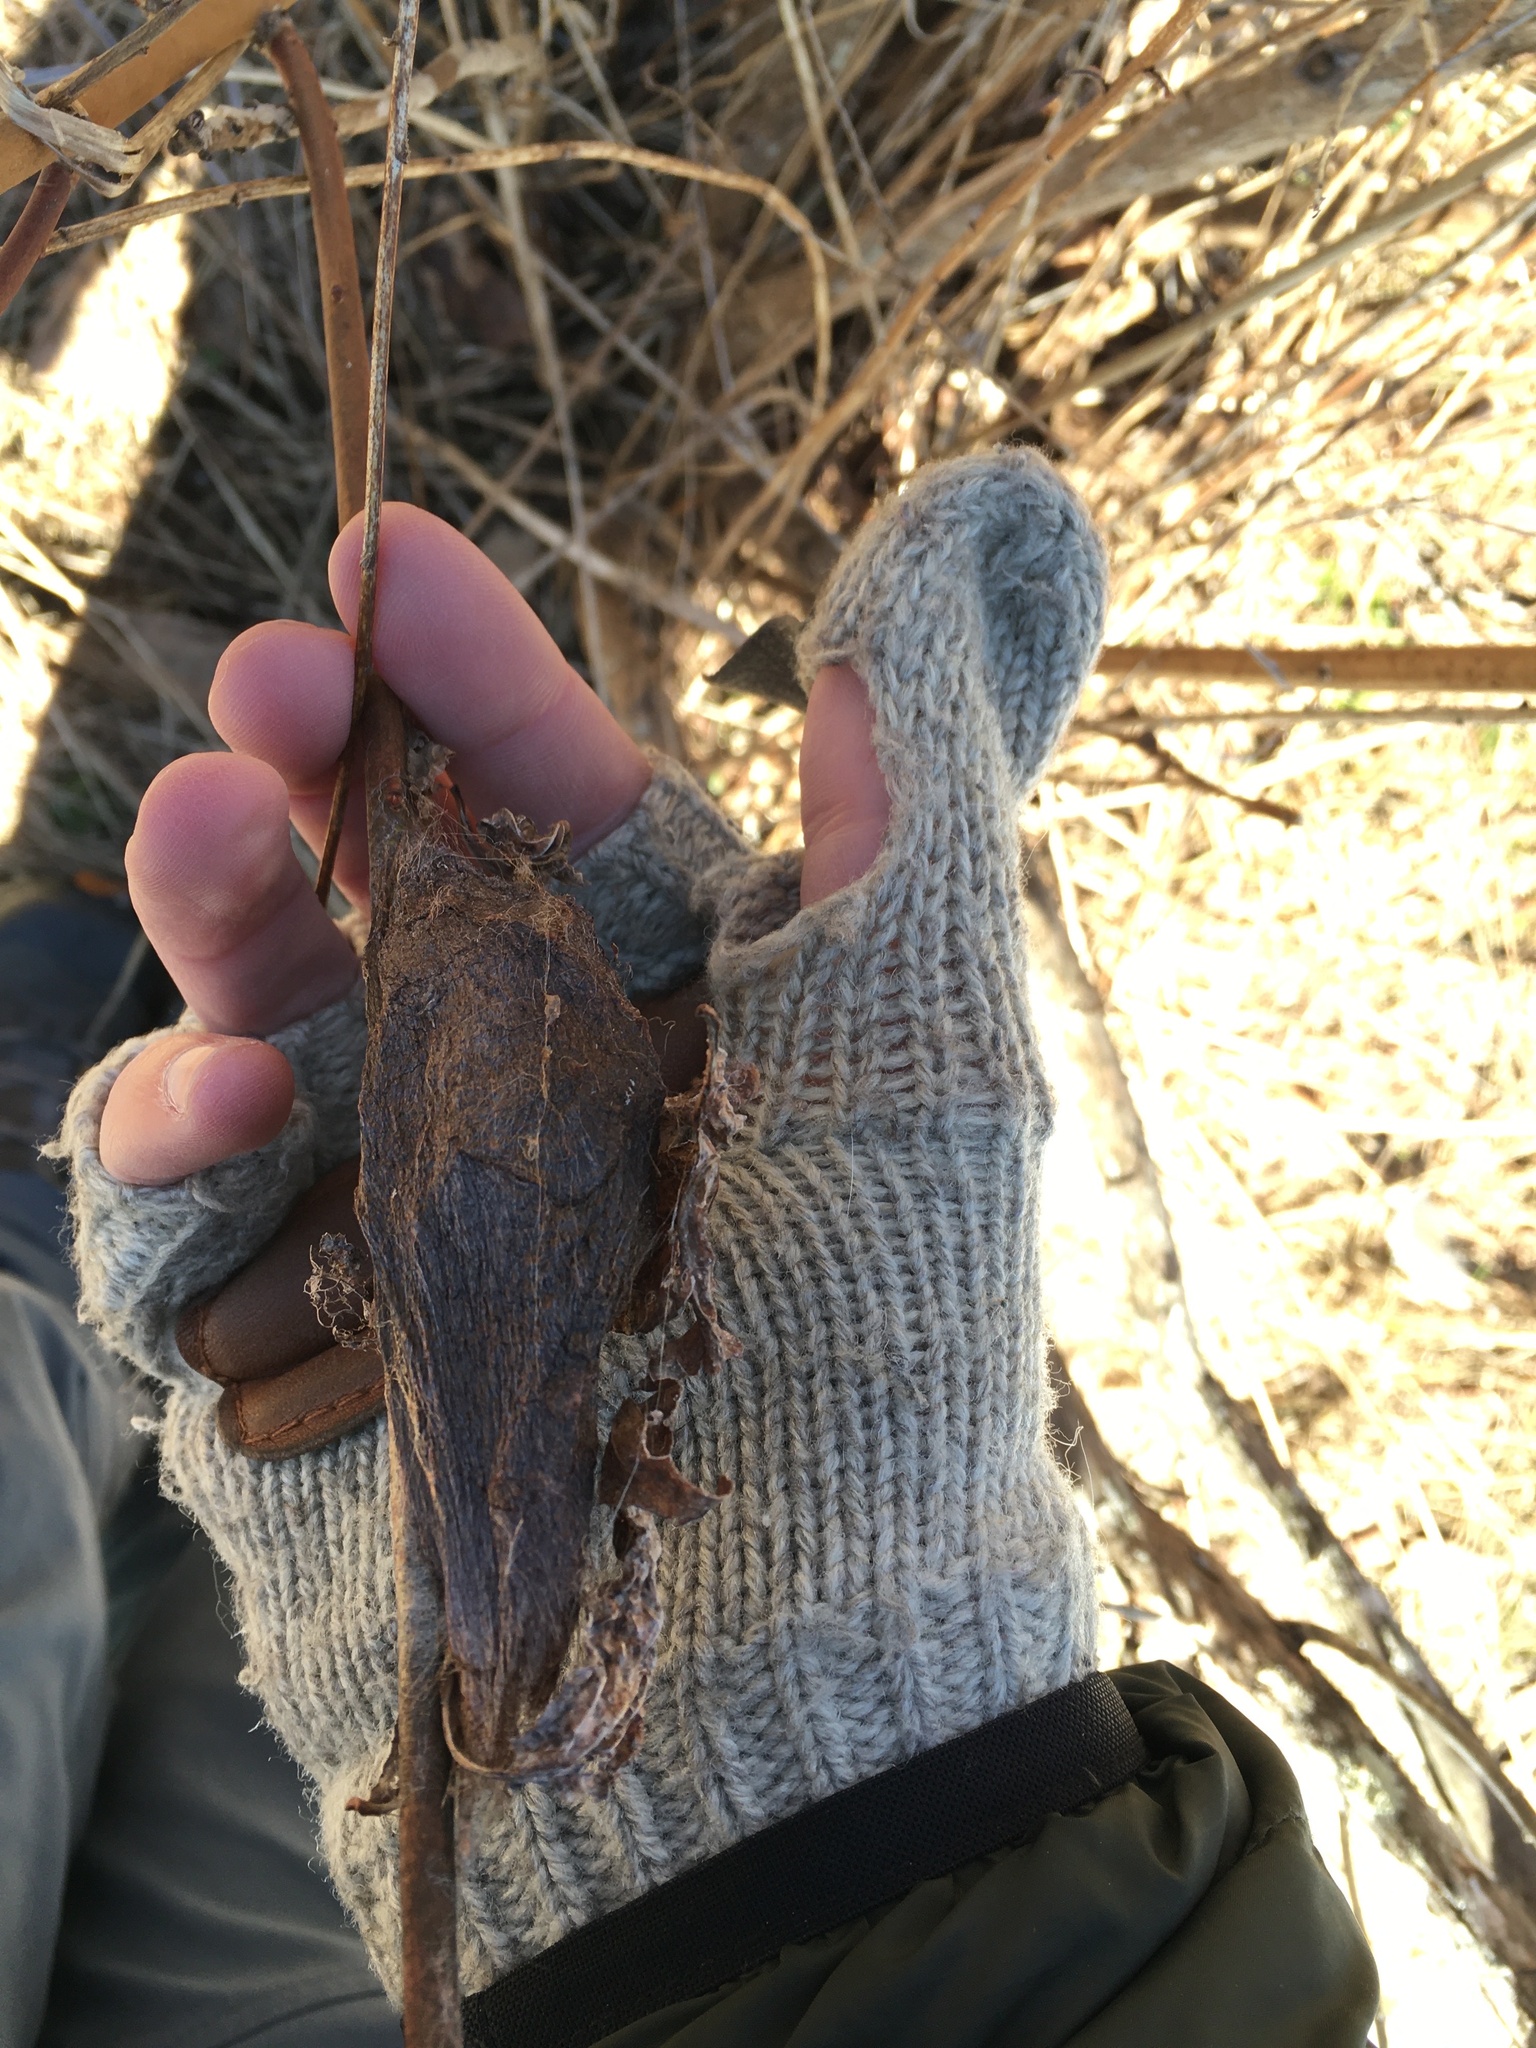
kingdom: Animalia
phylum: Arthropoda
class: Insecta
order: Lepidoptera
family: Saturniidae
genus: Hyalophora
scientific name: Hyalophora cecropia
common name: Cecropia silkmoth
